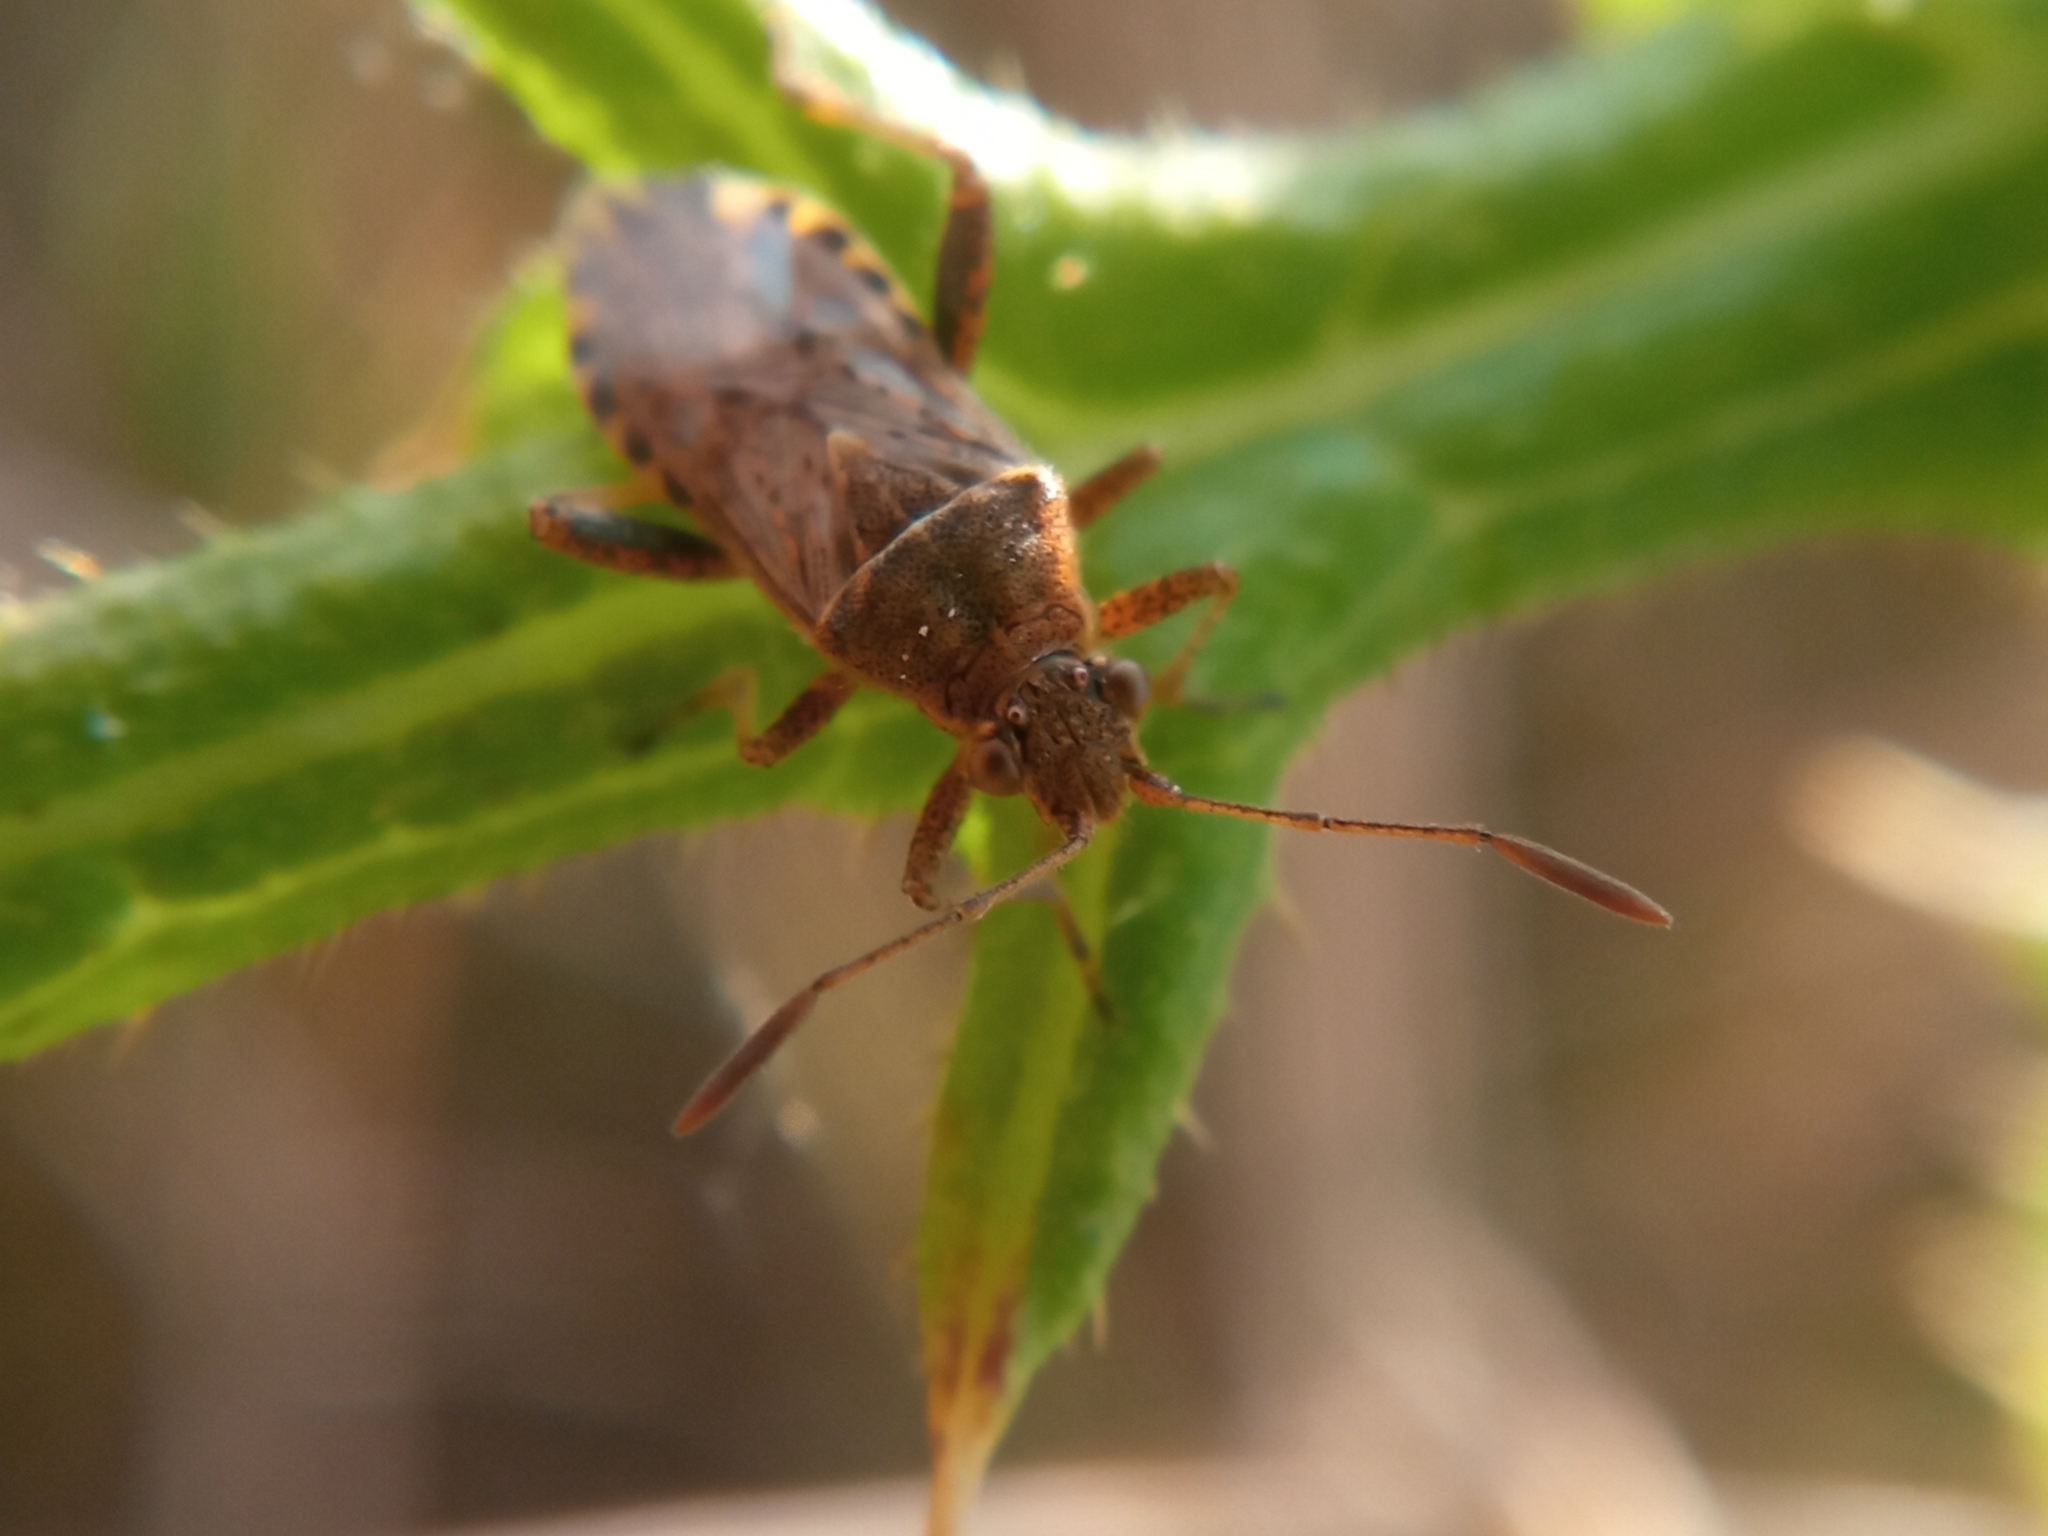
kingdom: Animalia
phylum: Arthropoda
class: Insecta
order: Hemiptera
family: Rhopalidae
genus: Stictopleurus
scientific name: Stictopleurus punctatonervosus
